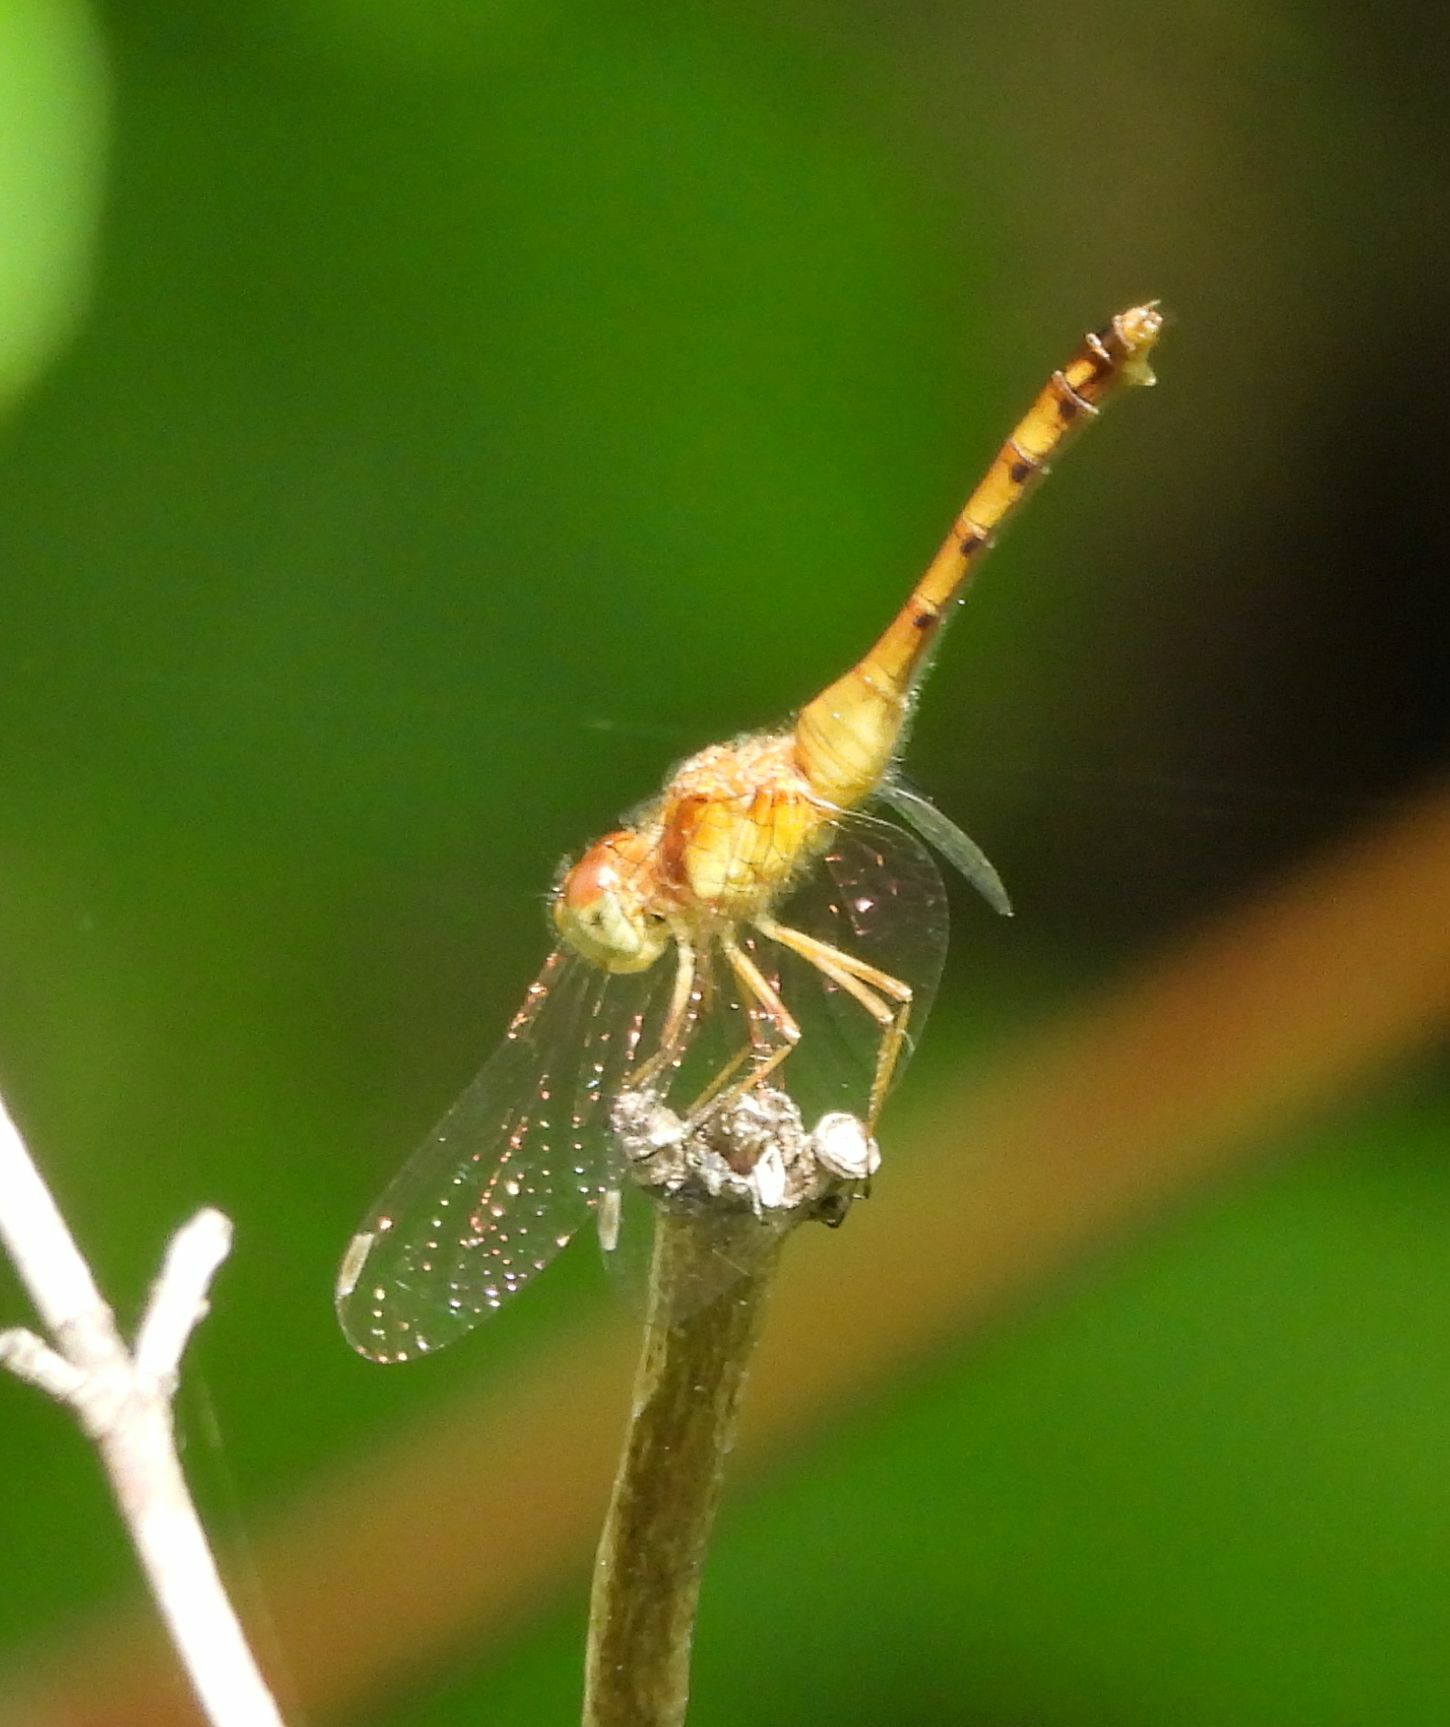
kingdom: Animalia
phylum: Arthropoda
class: Insecta
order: Odonata
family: Libellulidae
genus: Sympetrum
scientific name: Sympetrum vicinum
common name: Autumn meadowhawk
